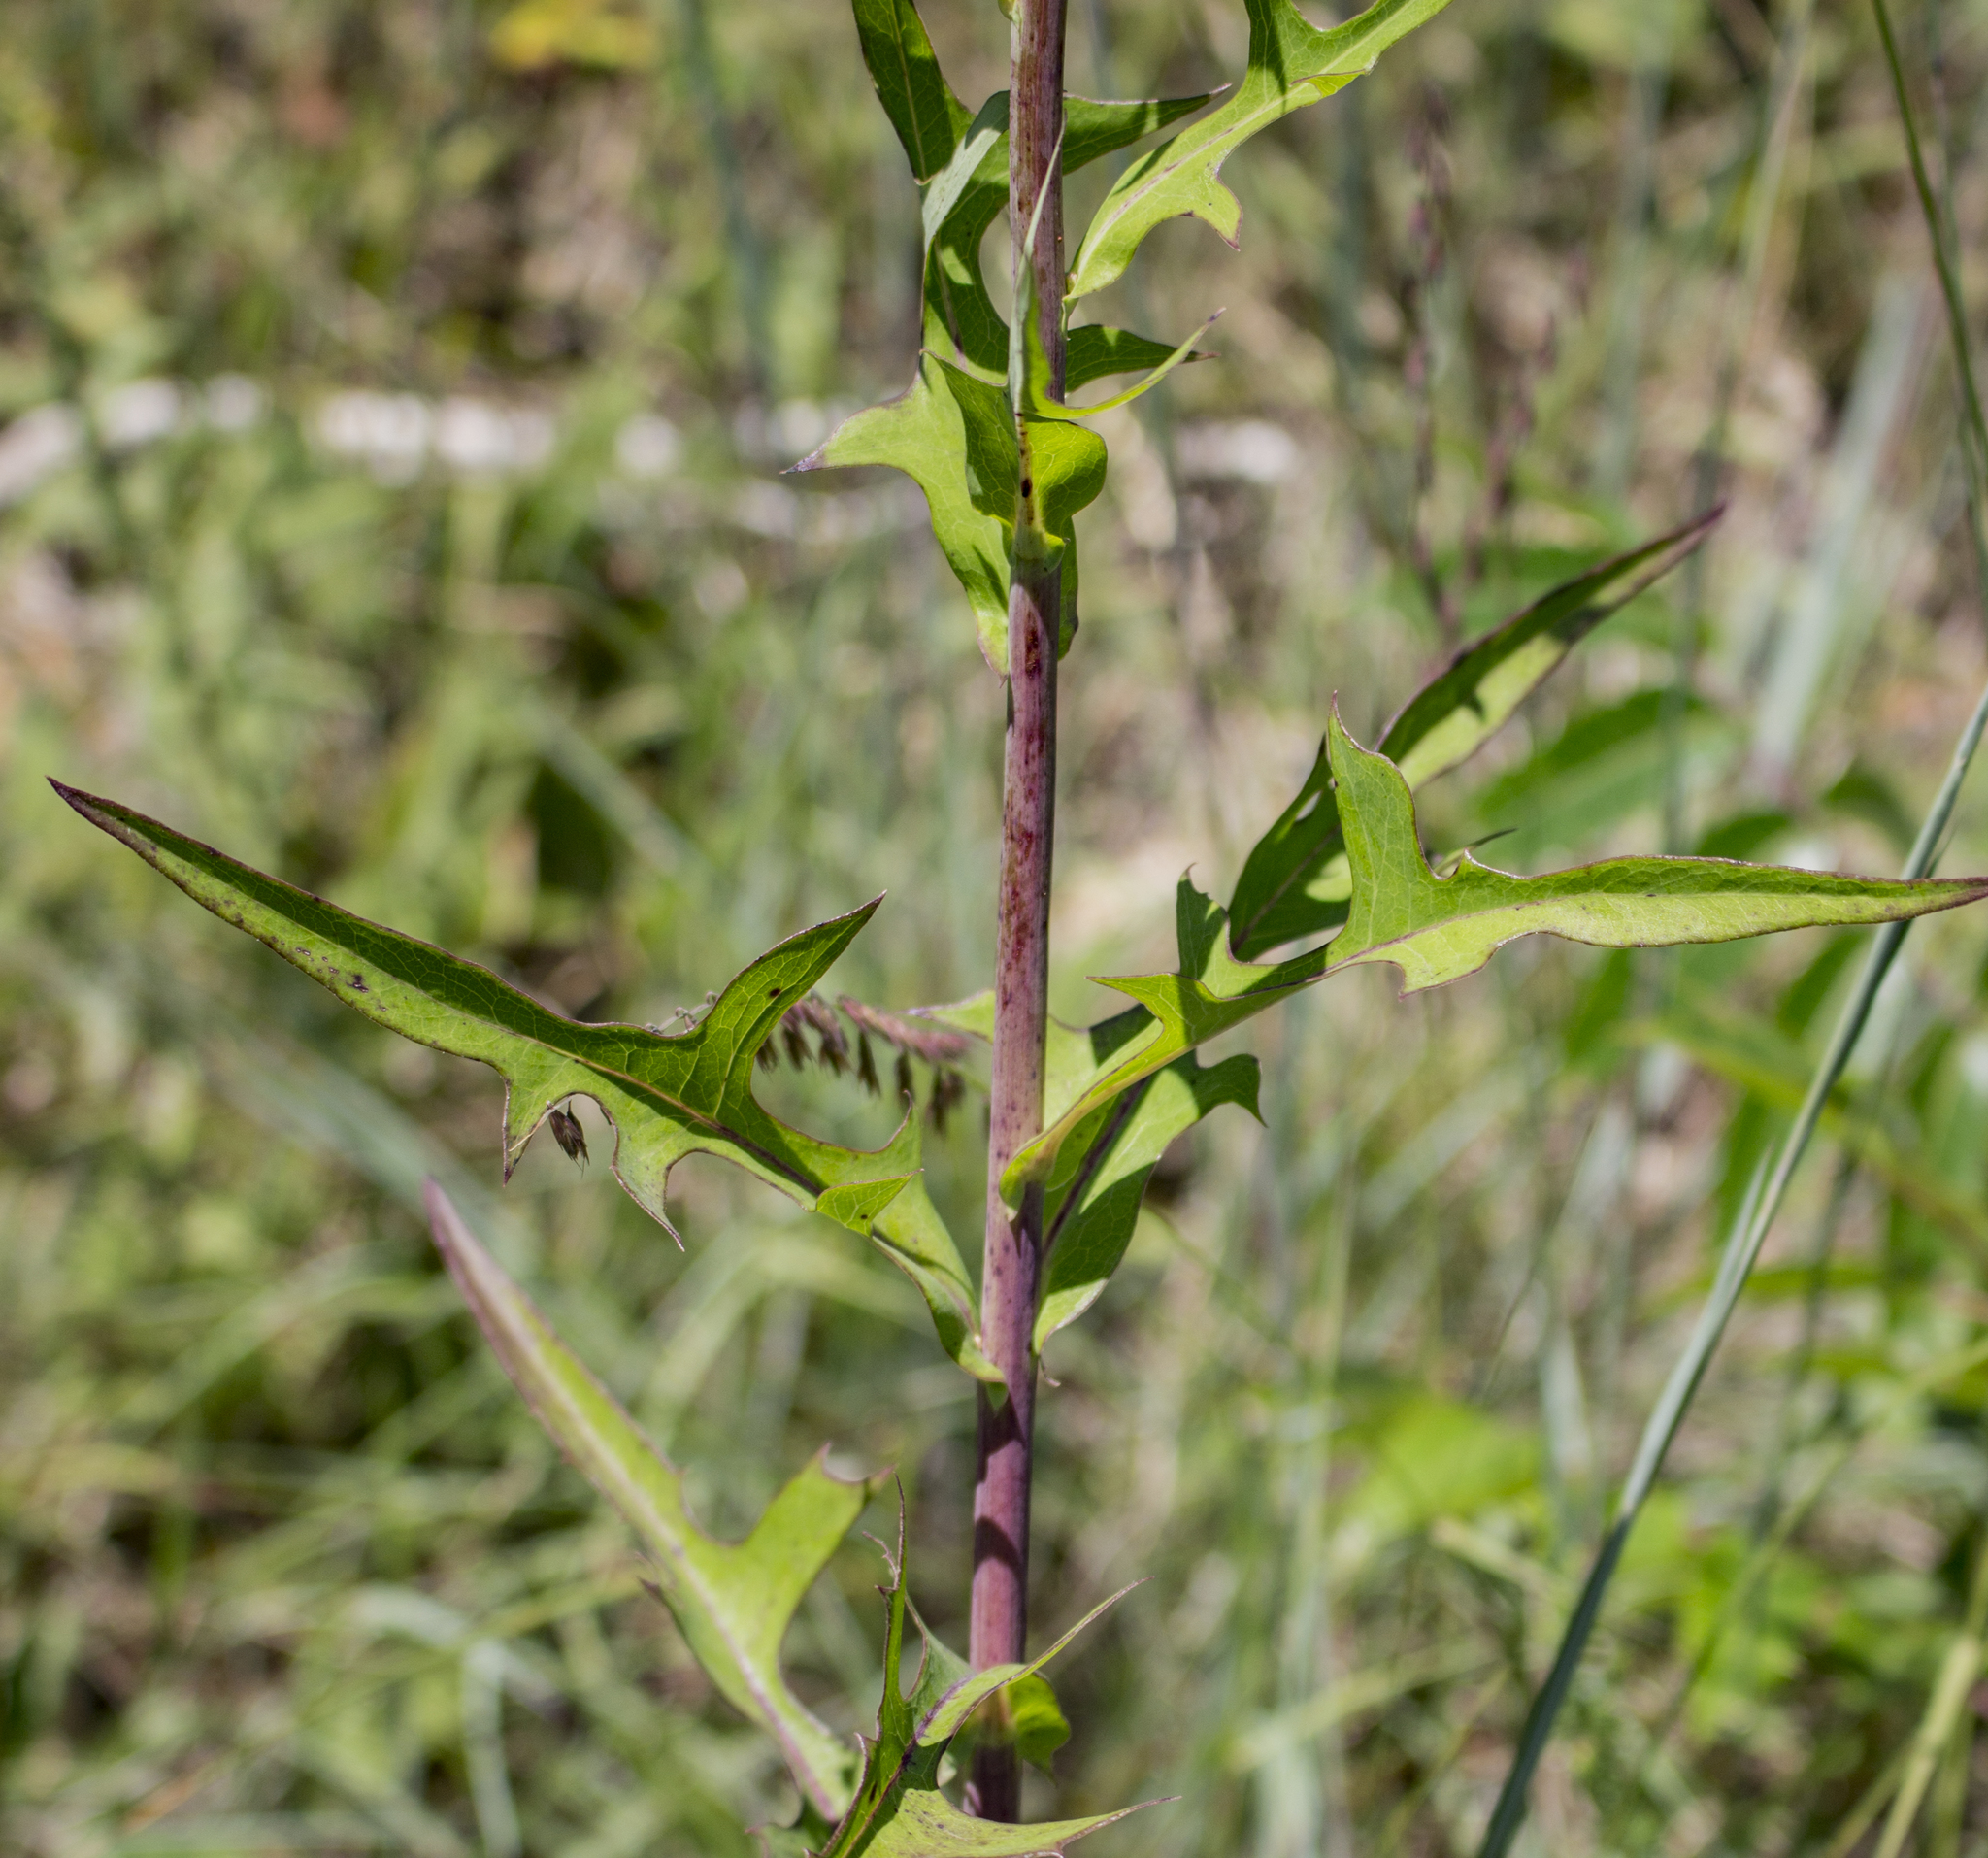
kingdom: Plantae
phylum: Tracheophyta
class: Magnoliopsida
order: Asterales
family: Asteraceae
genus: Lactuca
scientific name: Lactuca canadensis
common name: Canada lettuce
